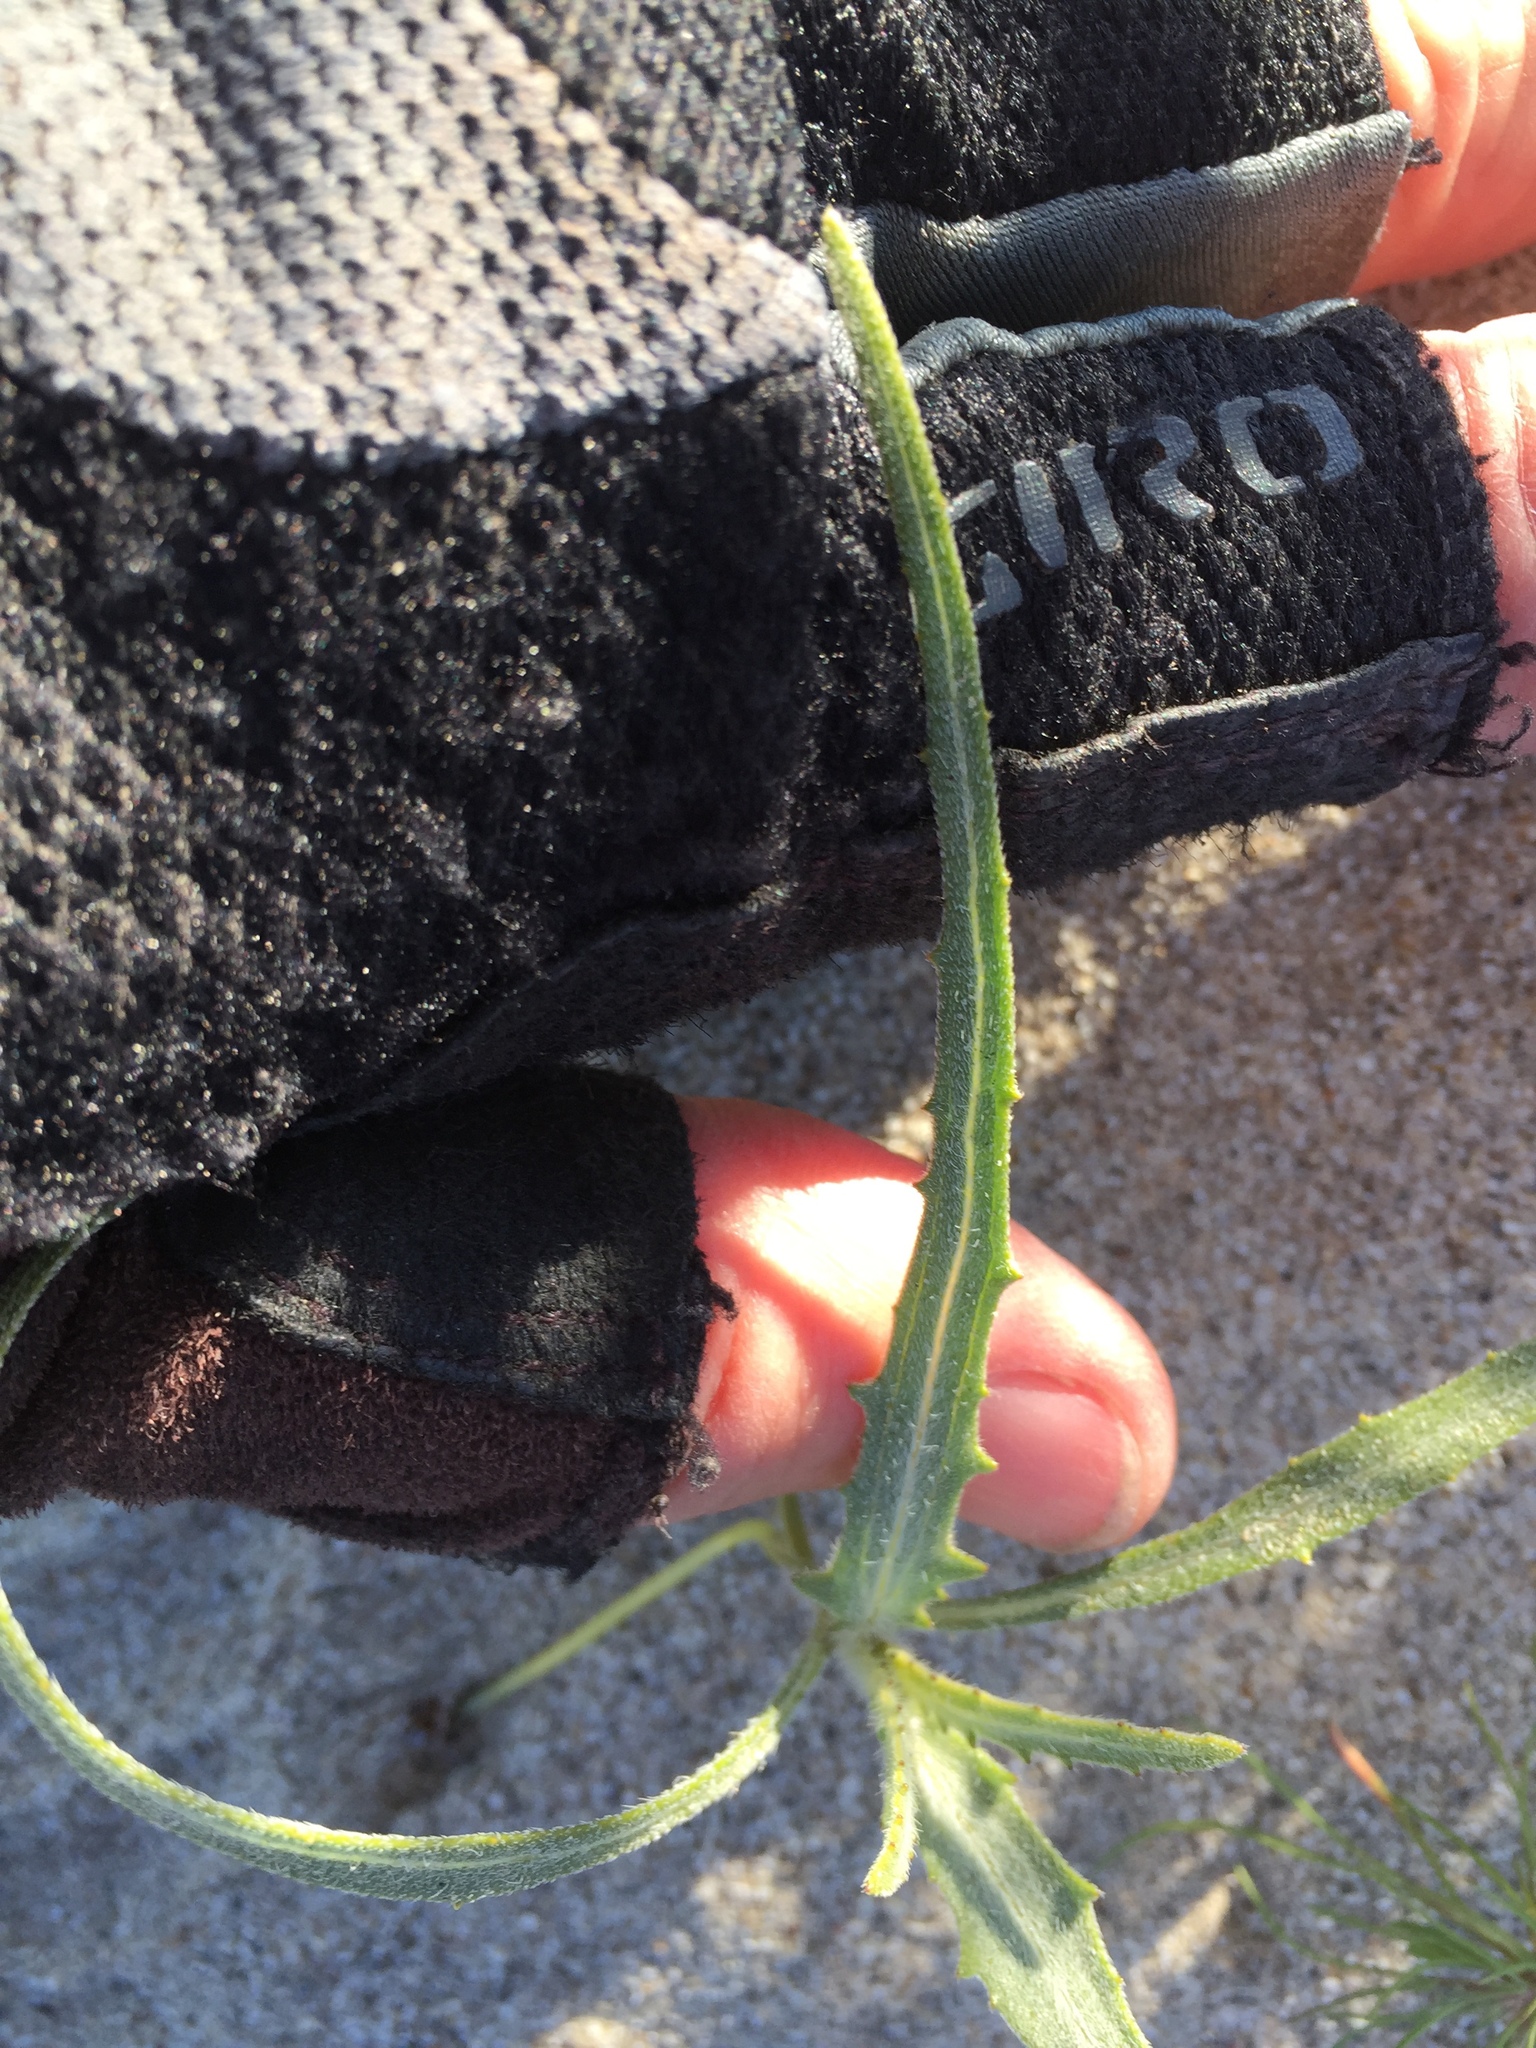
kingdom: Plantae
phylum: Tracheophyta
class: Magnoliopsida
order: Asterales
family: Asteraceae
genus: Dicoria
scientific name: Dicoria canescens
